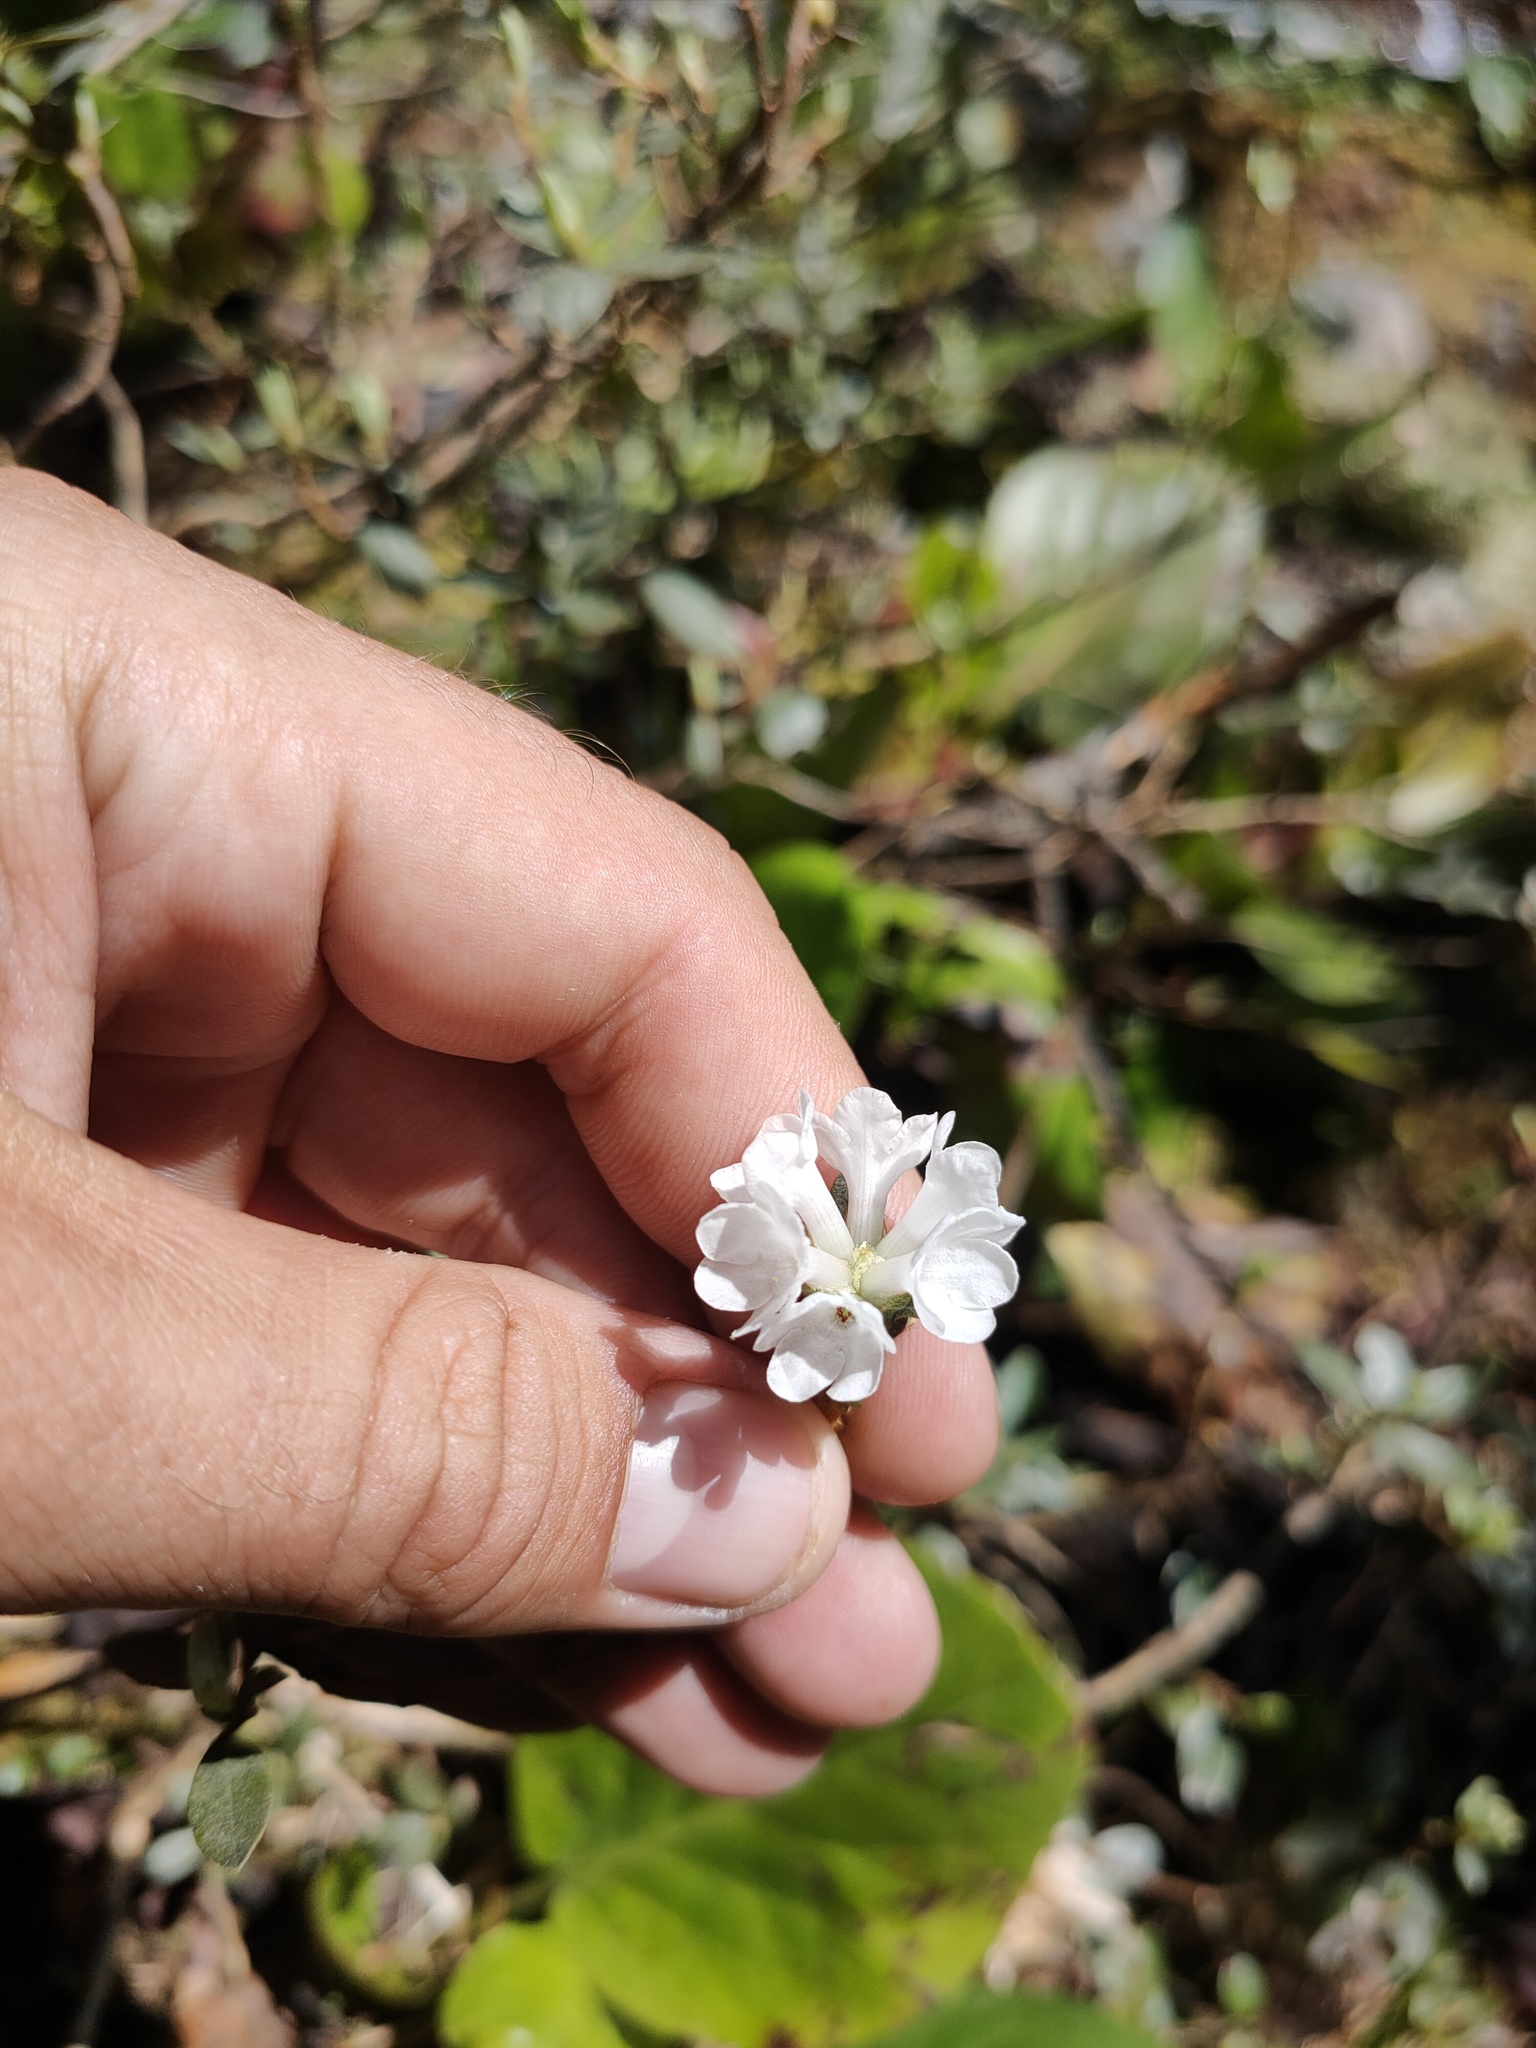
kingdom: Plantae
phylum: Tracheophyta
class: Magnoliopsida
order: Ericales
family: Ericaceae
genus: Rhododendron
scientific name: Rhododendron adamsii
